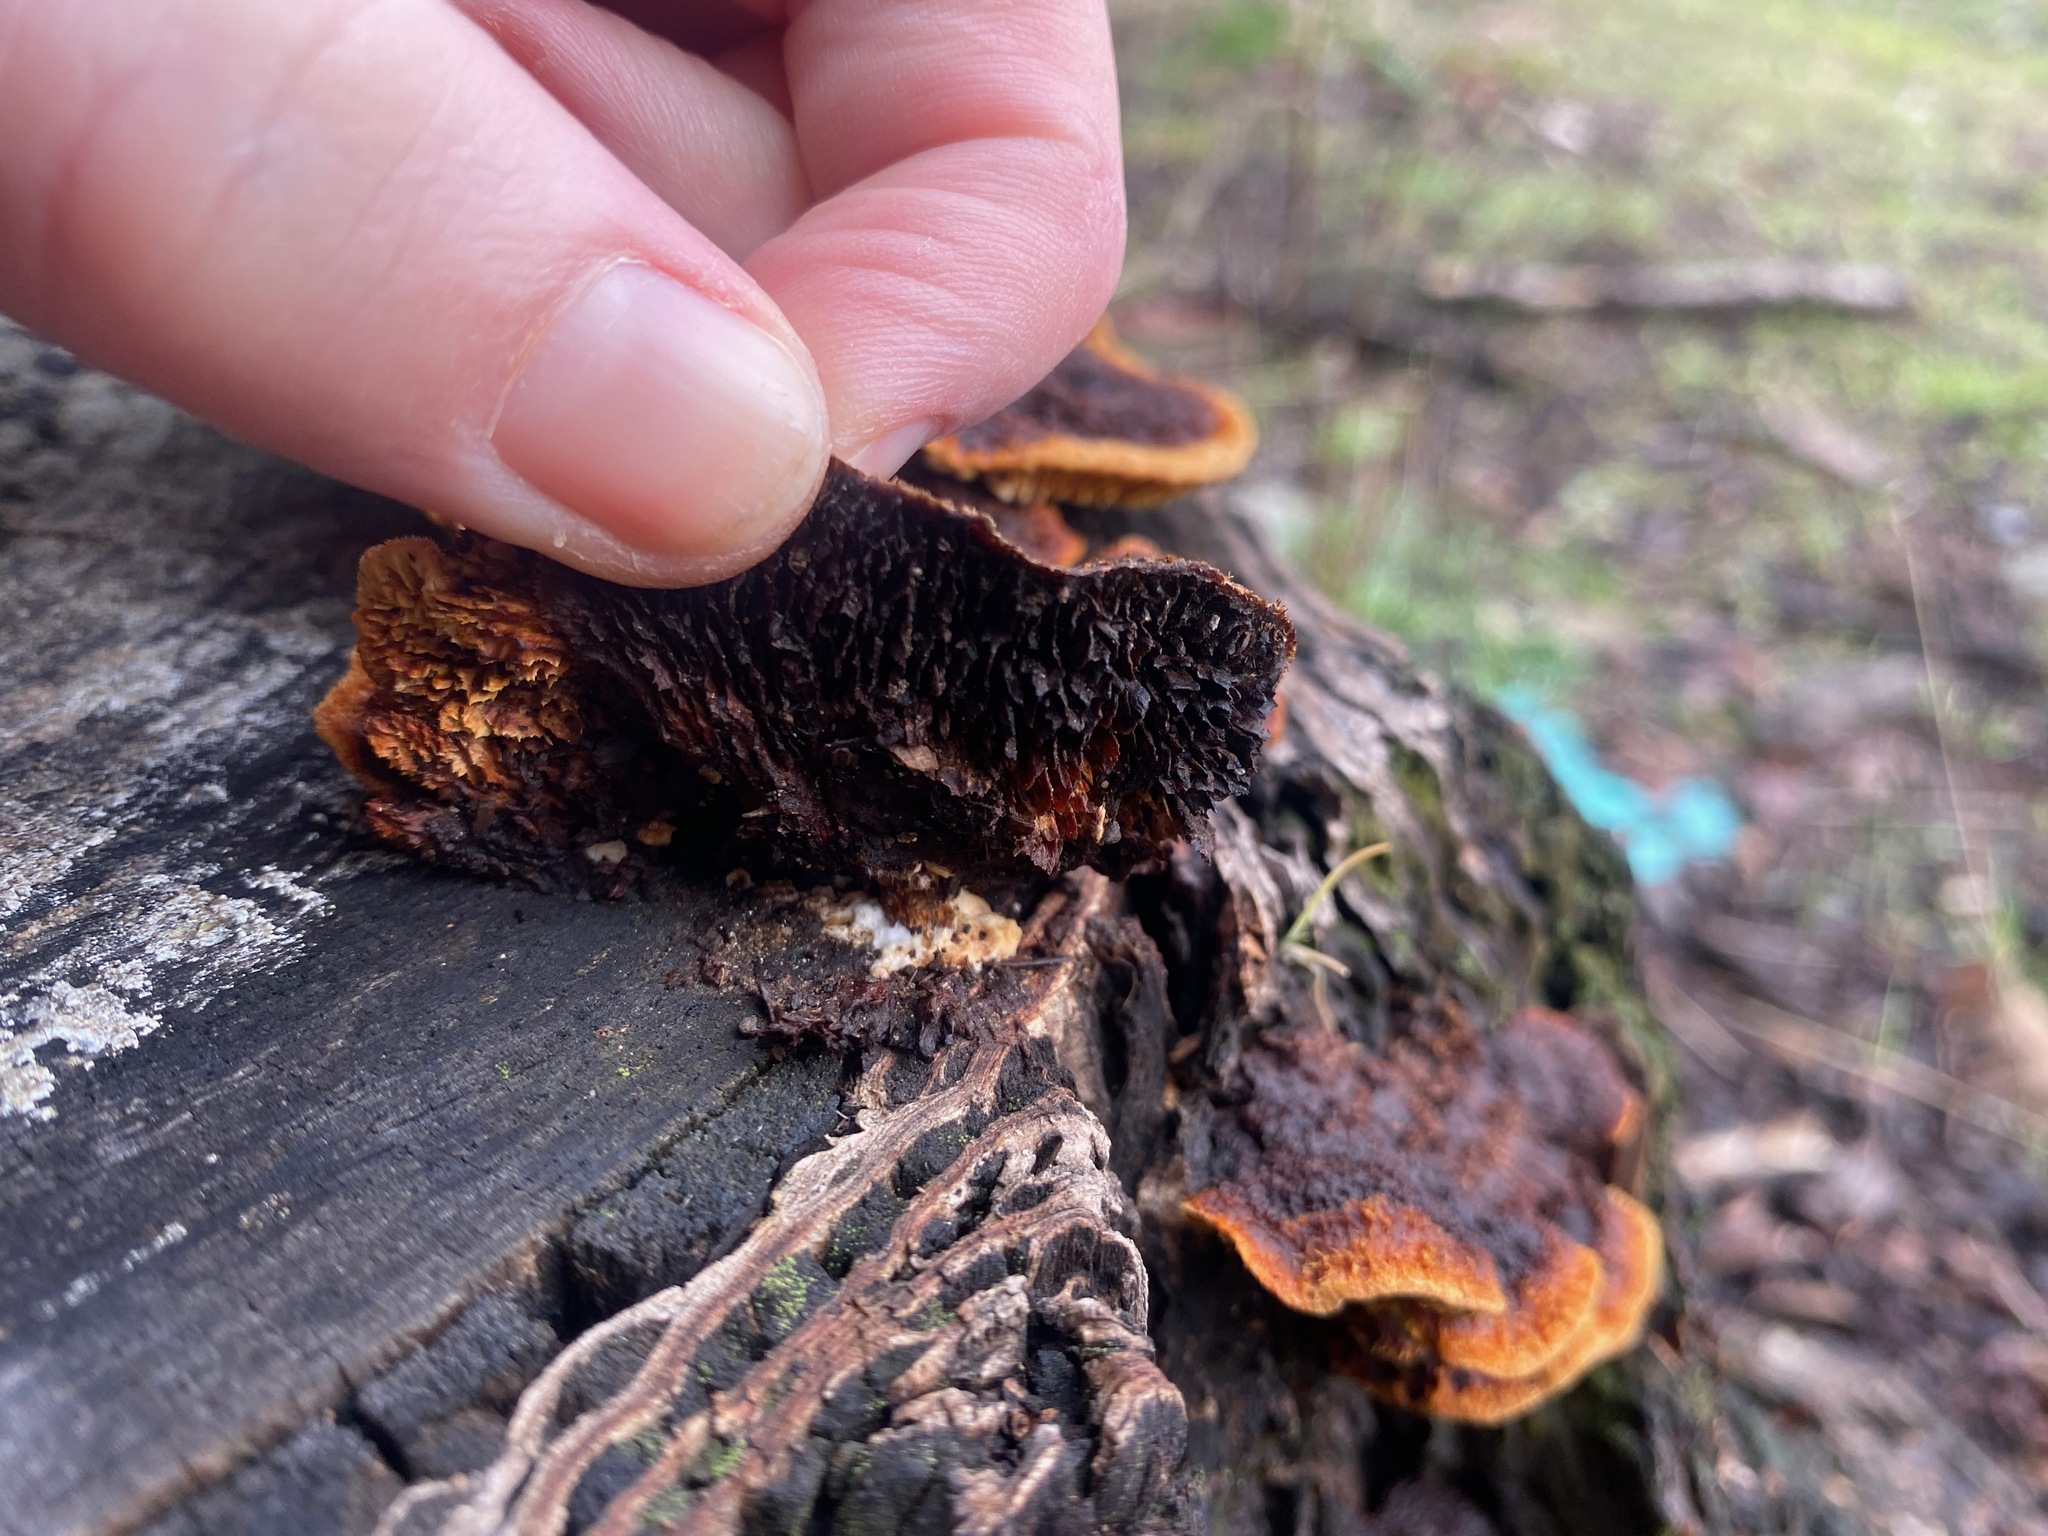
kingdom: Fungi
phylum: Basidiomycota
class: Agaricomycetes
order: Gloeophyllales
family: Gloeophyllaceae
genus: Gloeophyllum
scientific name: Gloeophyllum sepiarium
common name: Conifer mazegill
